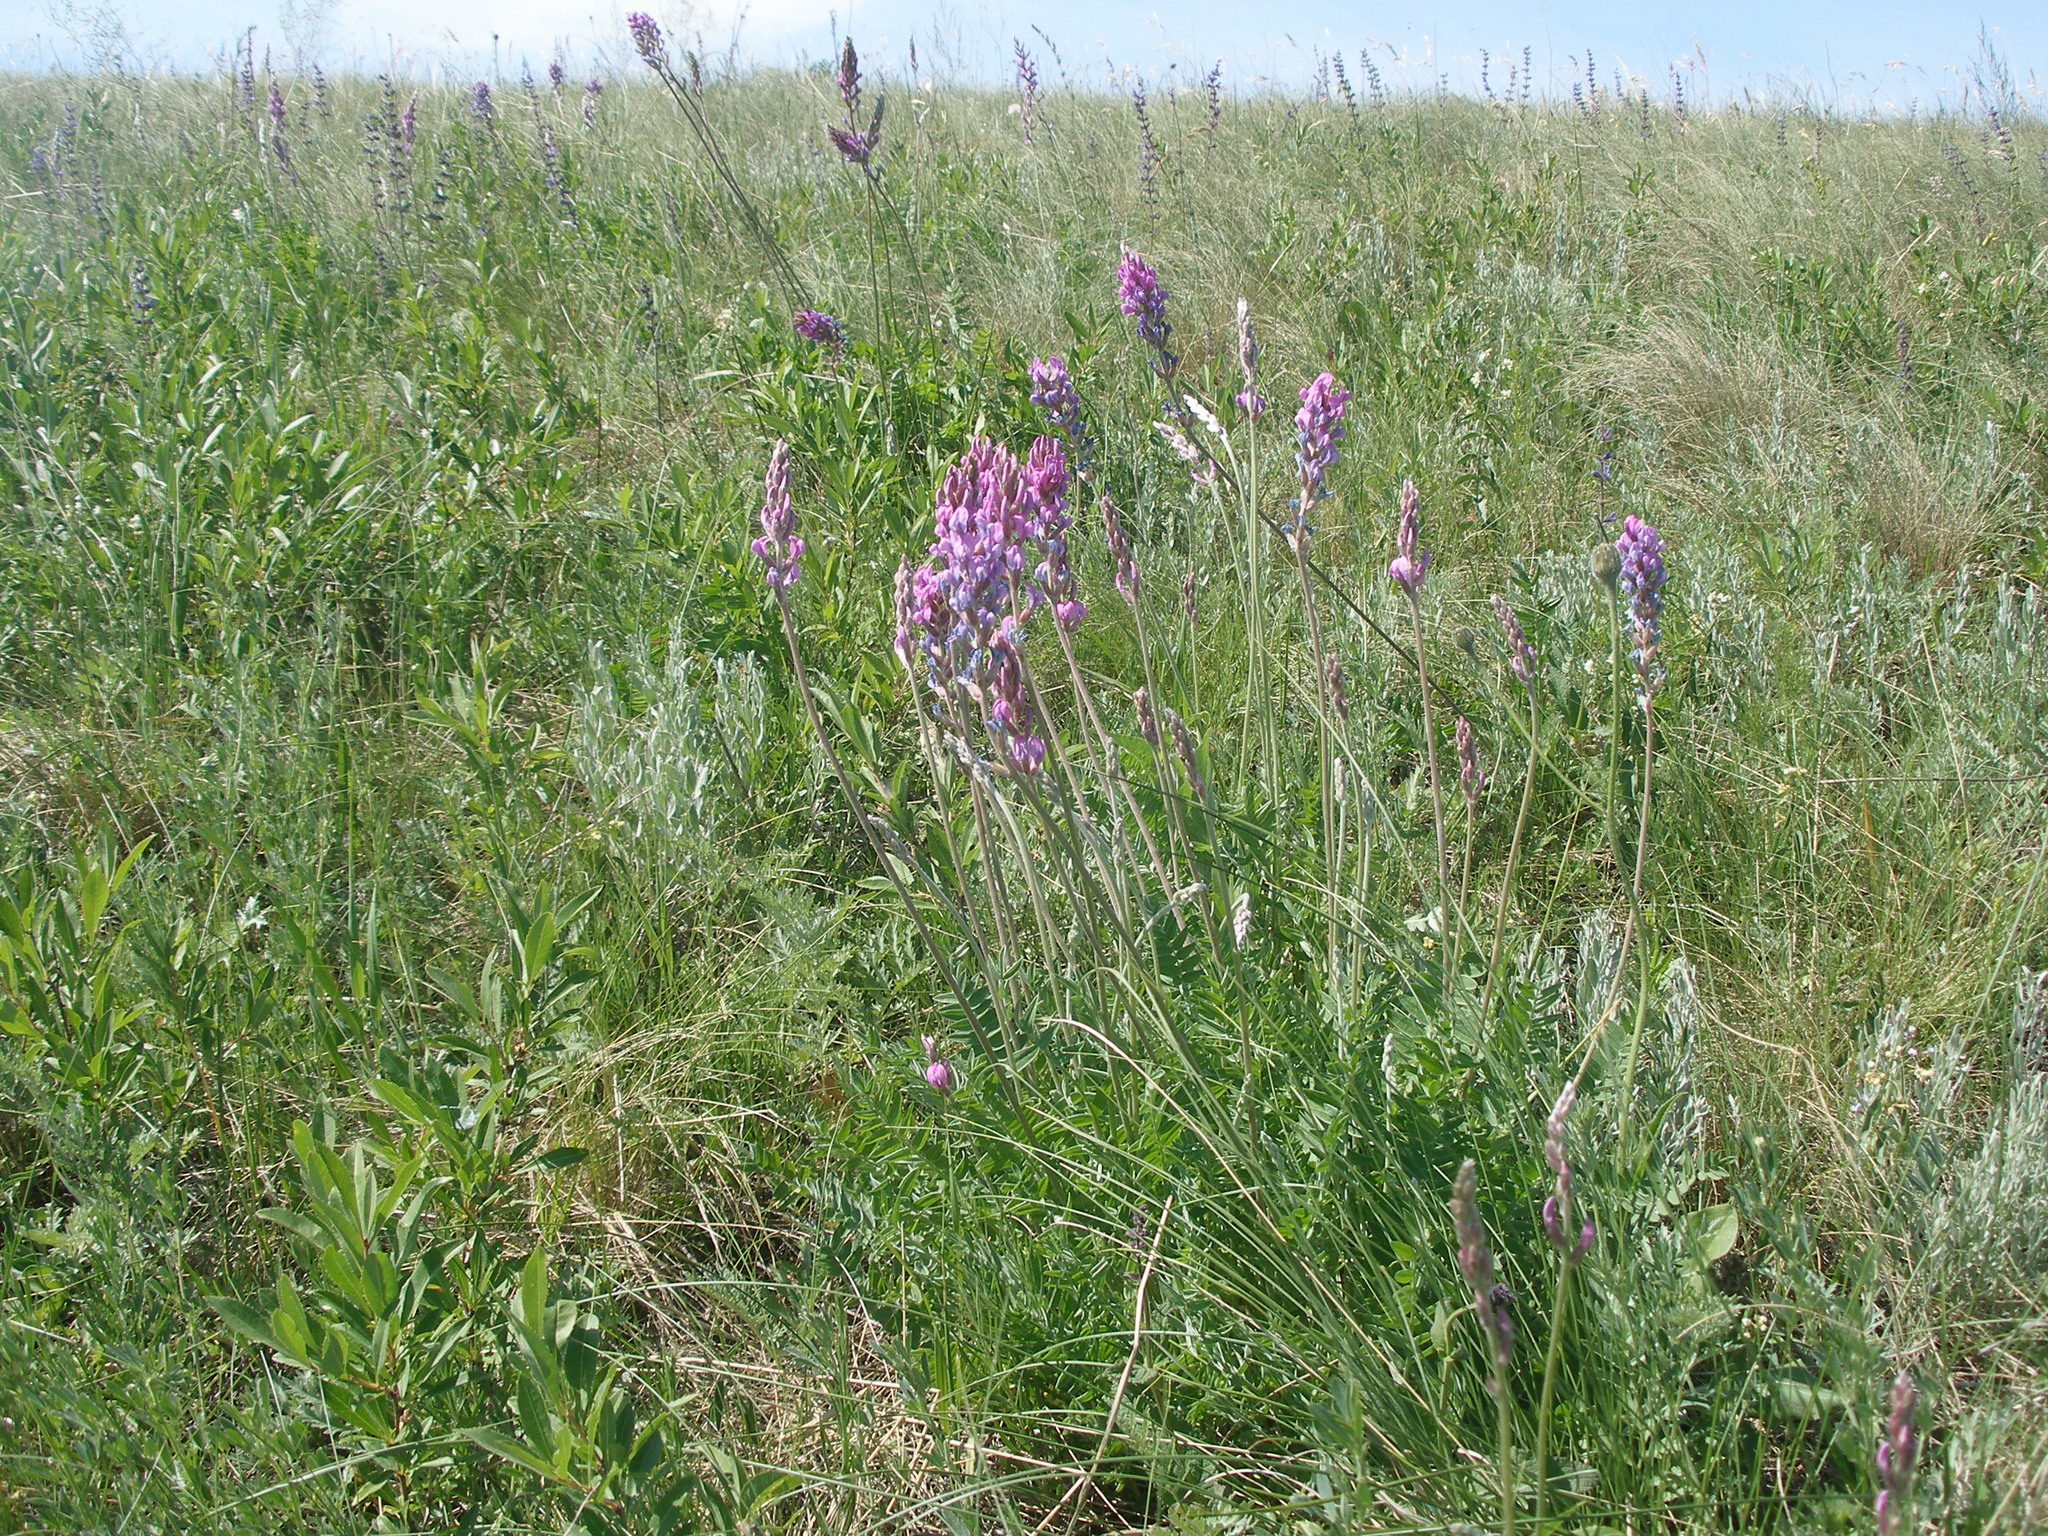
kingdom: Plantae
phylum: Tracheophyta
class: Magnoliopsida
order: Fabales
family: Fabaceae
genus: Oxytropis
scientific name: Oxytropis knjazevii
